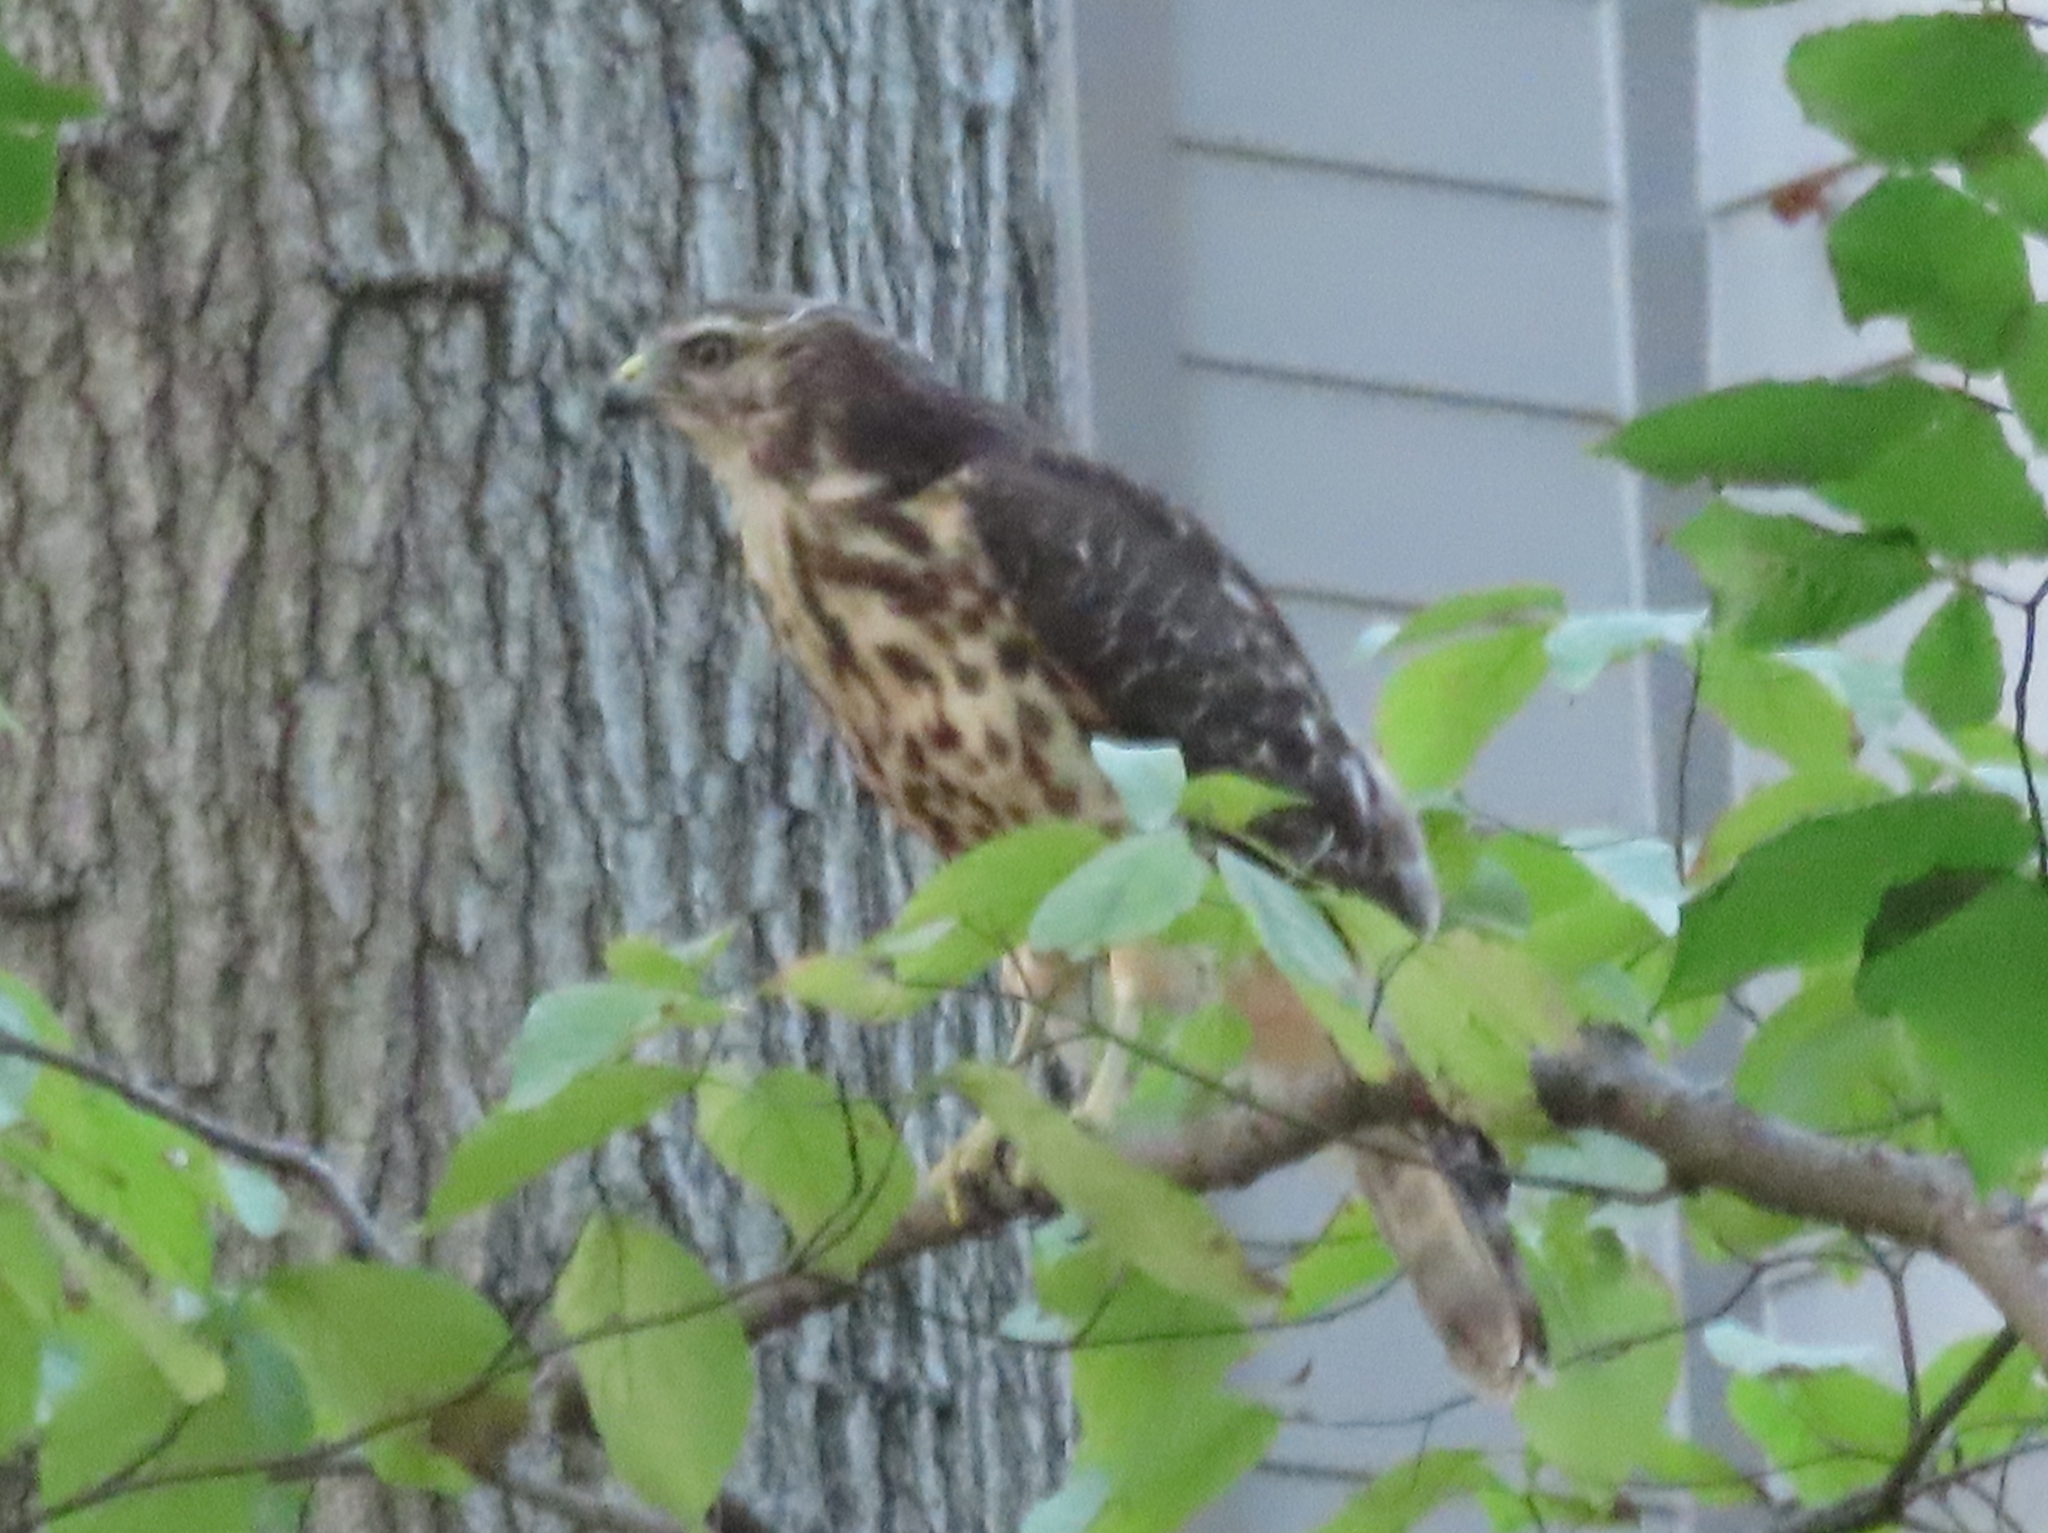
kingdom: Animalia
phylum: Chordata
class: Aves
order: Accipitriformes
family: Accipitridae
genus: Buteo
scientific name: Buteo lineatus
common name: Red-shouldered hawk
